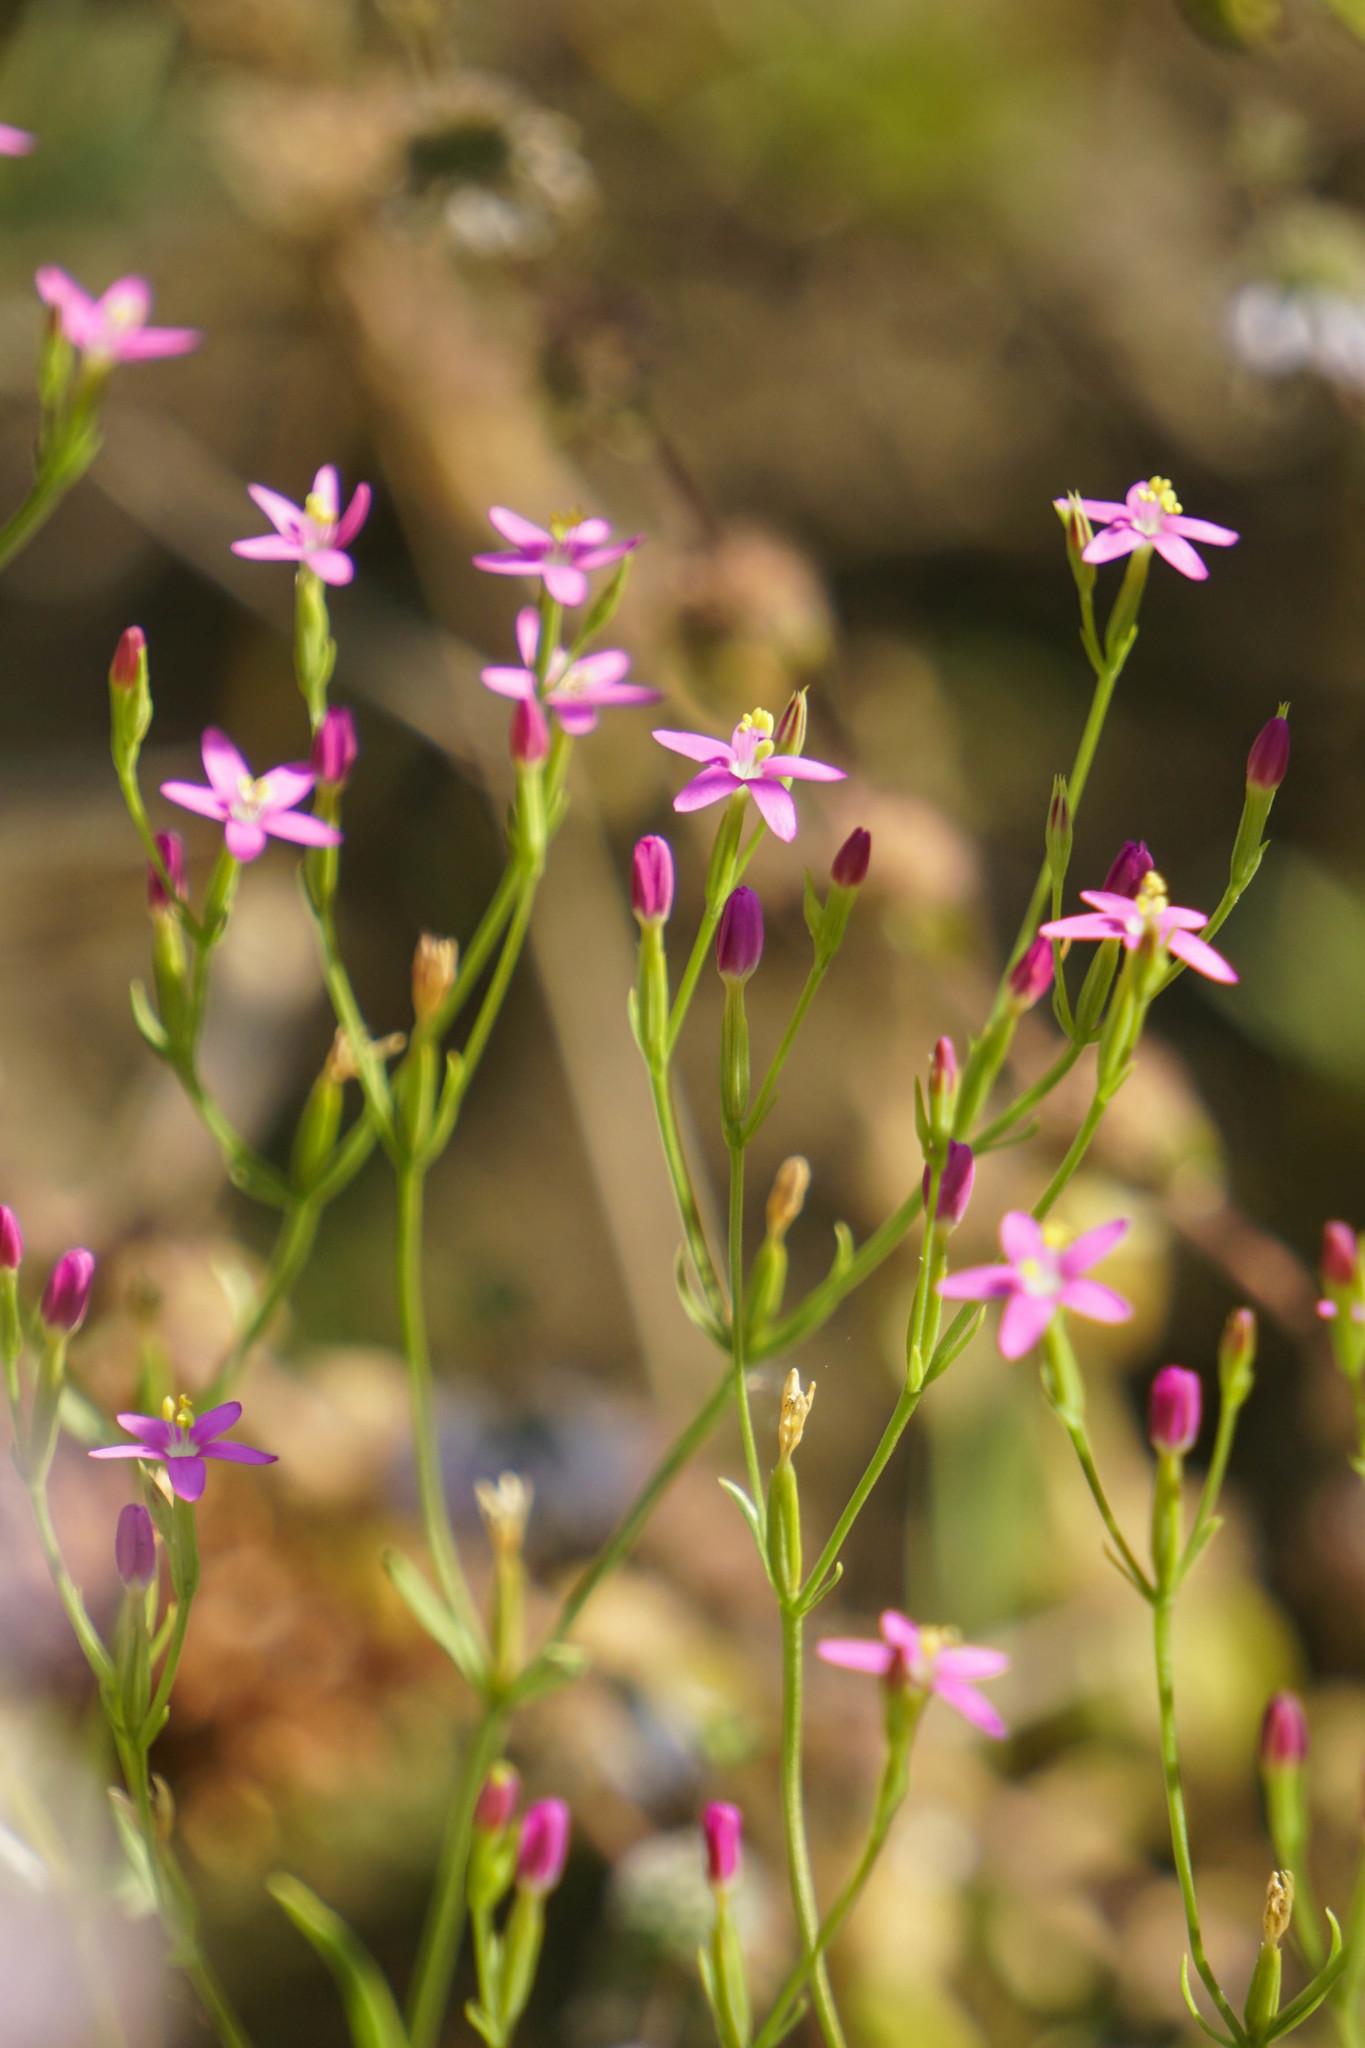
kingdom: Plantae
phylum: Tracheophyta
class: Magnoliopsida
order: Gentianales
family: Gentianaceae
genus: Centaurium
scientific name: Centaurium pulchellum
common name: Lesser centaury
